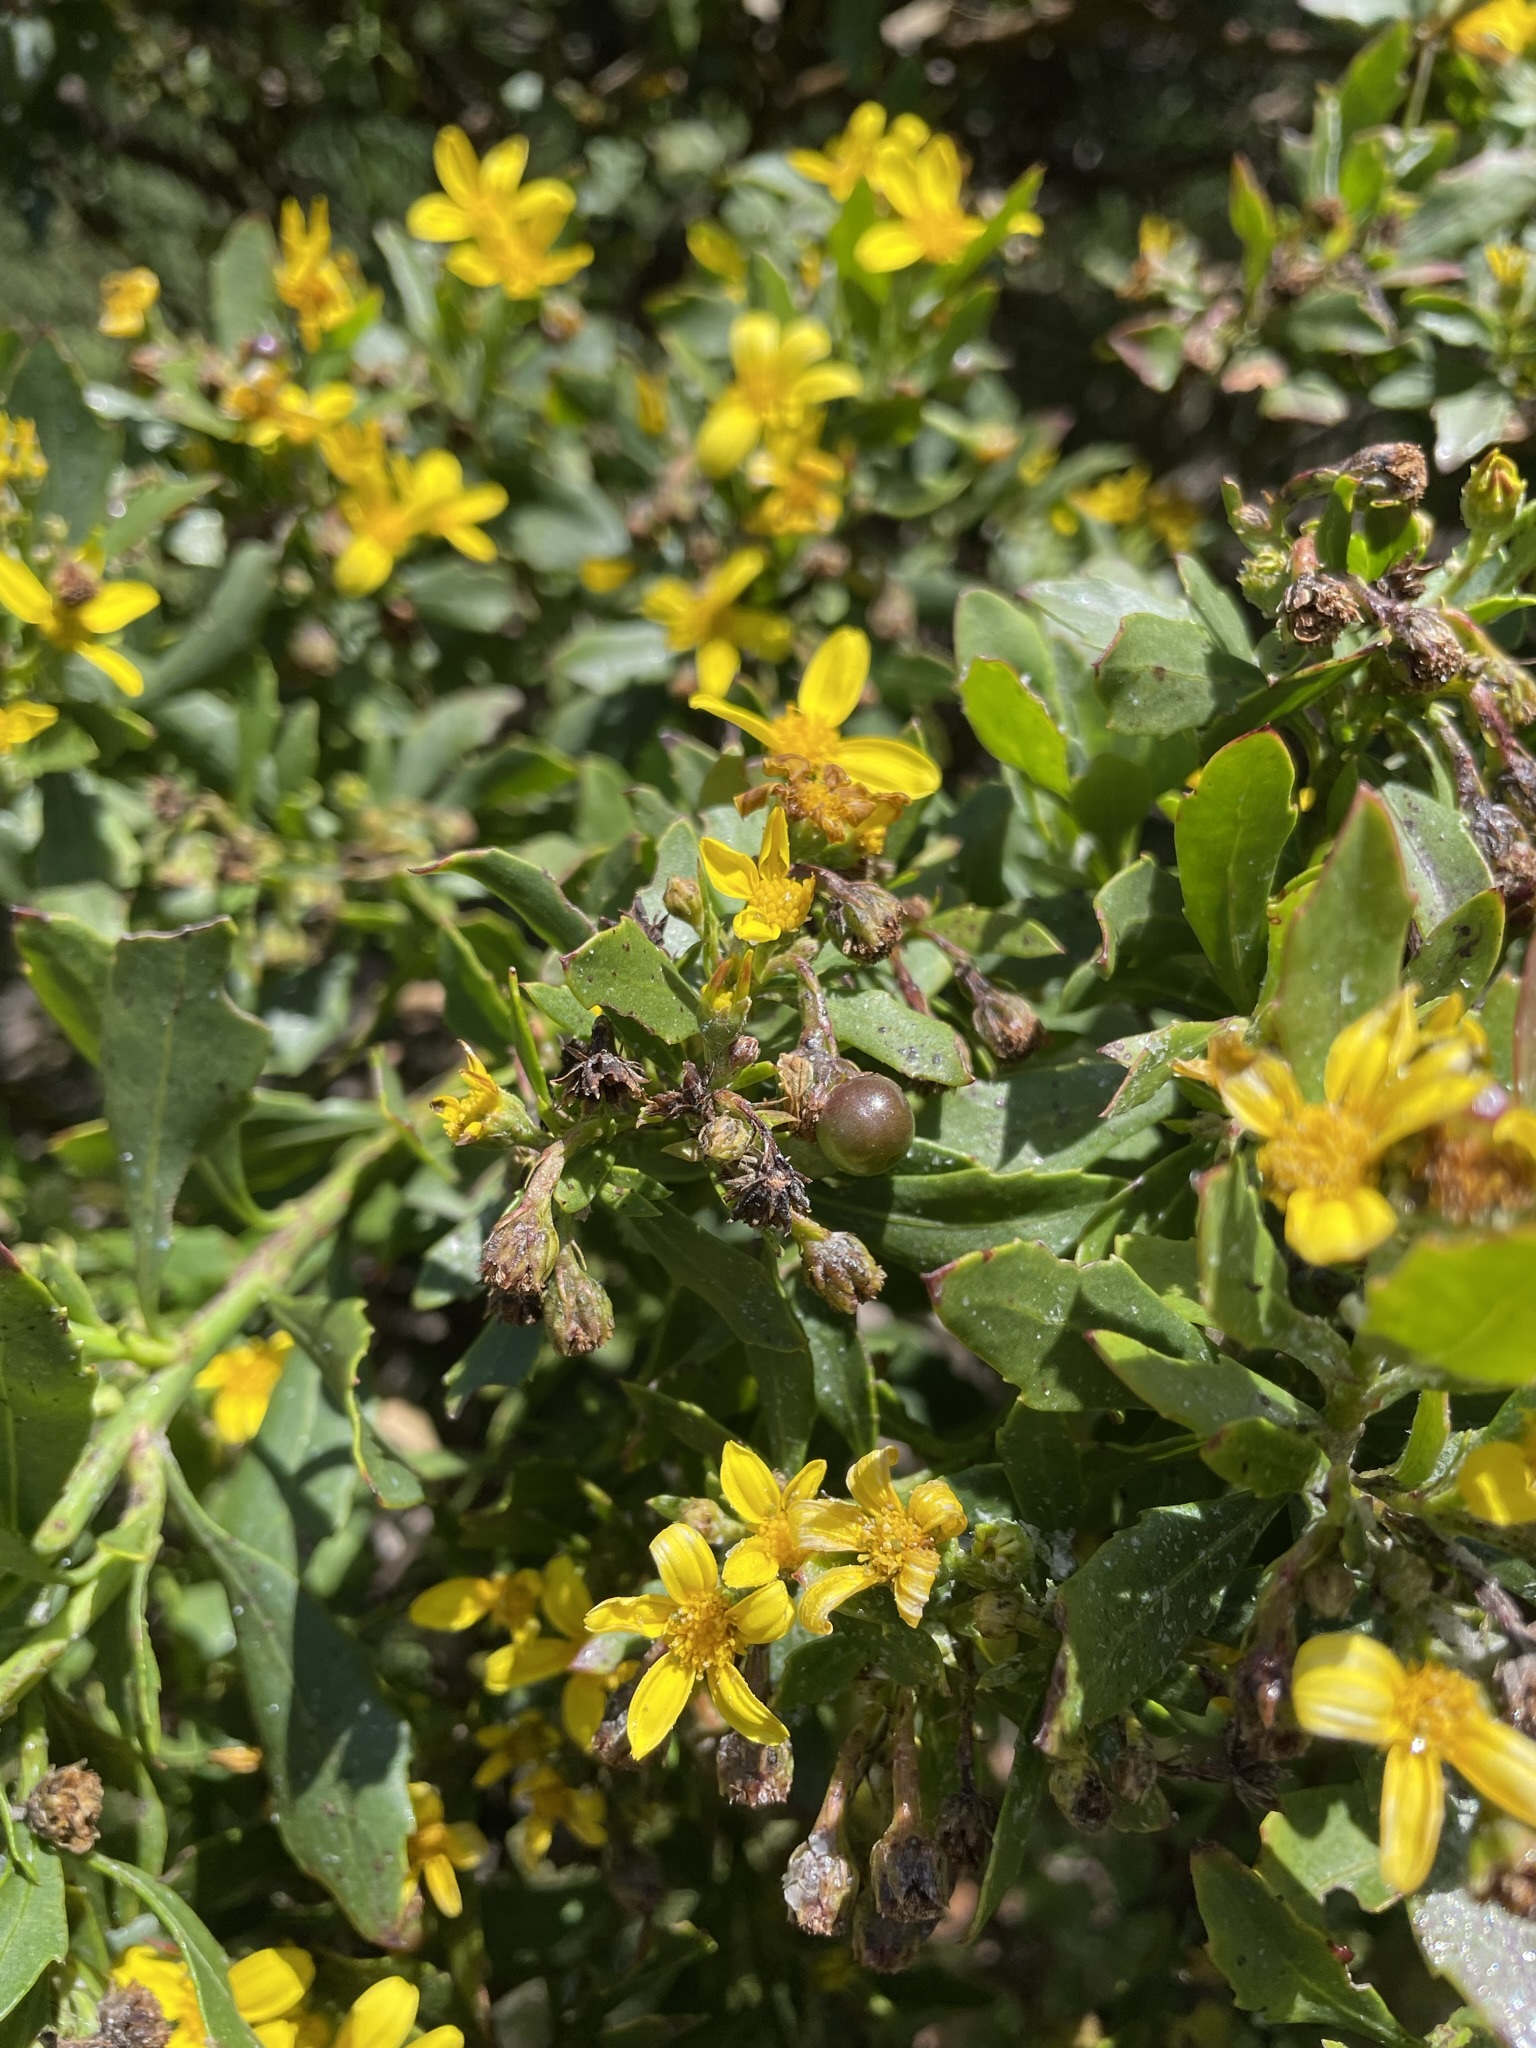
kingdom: Plantae
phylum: Tracheophyta
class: Magnoliopsida
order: Asterales
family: Asteraceae
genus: Osteospermum
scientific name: Osteospermum moniliferum
